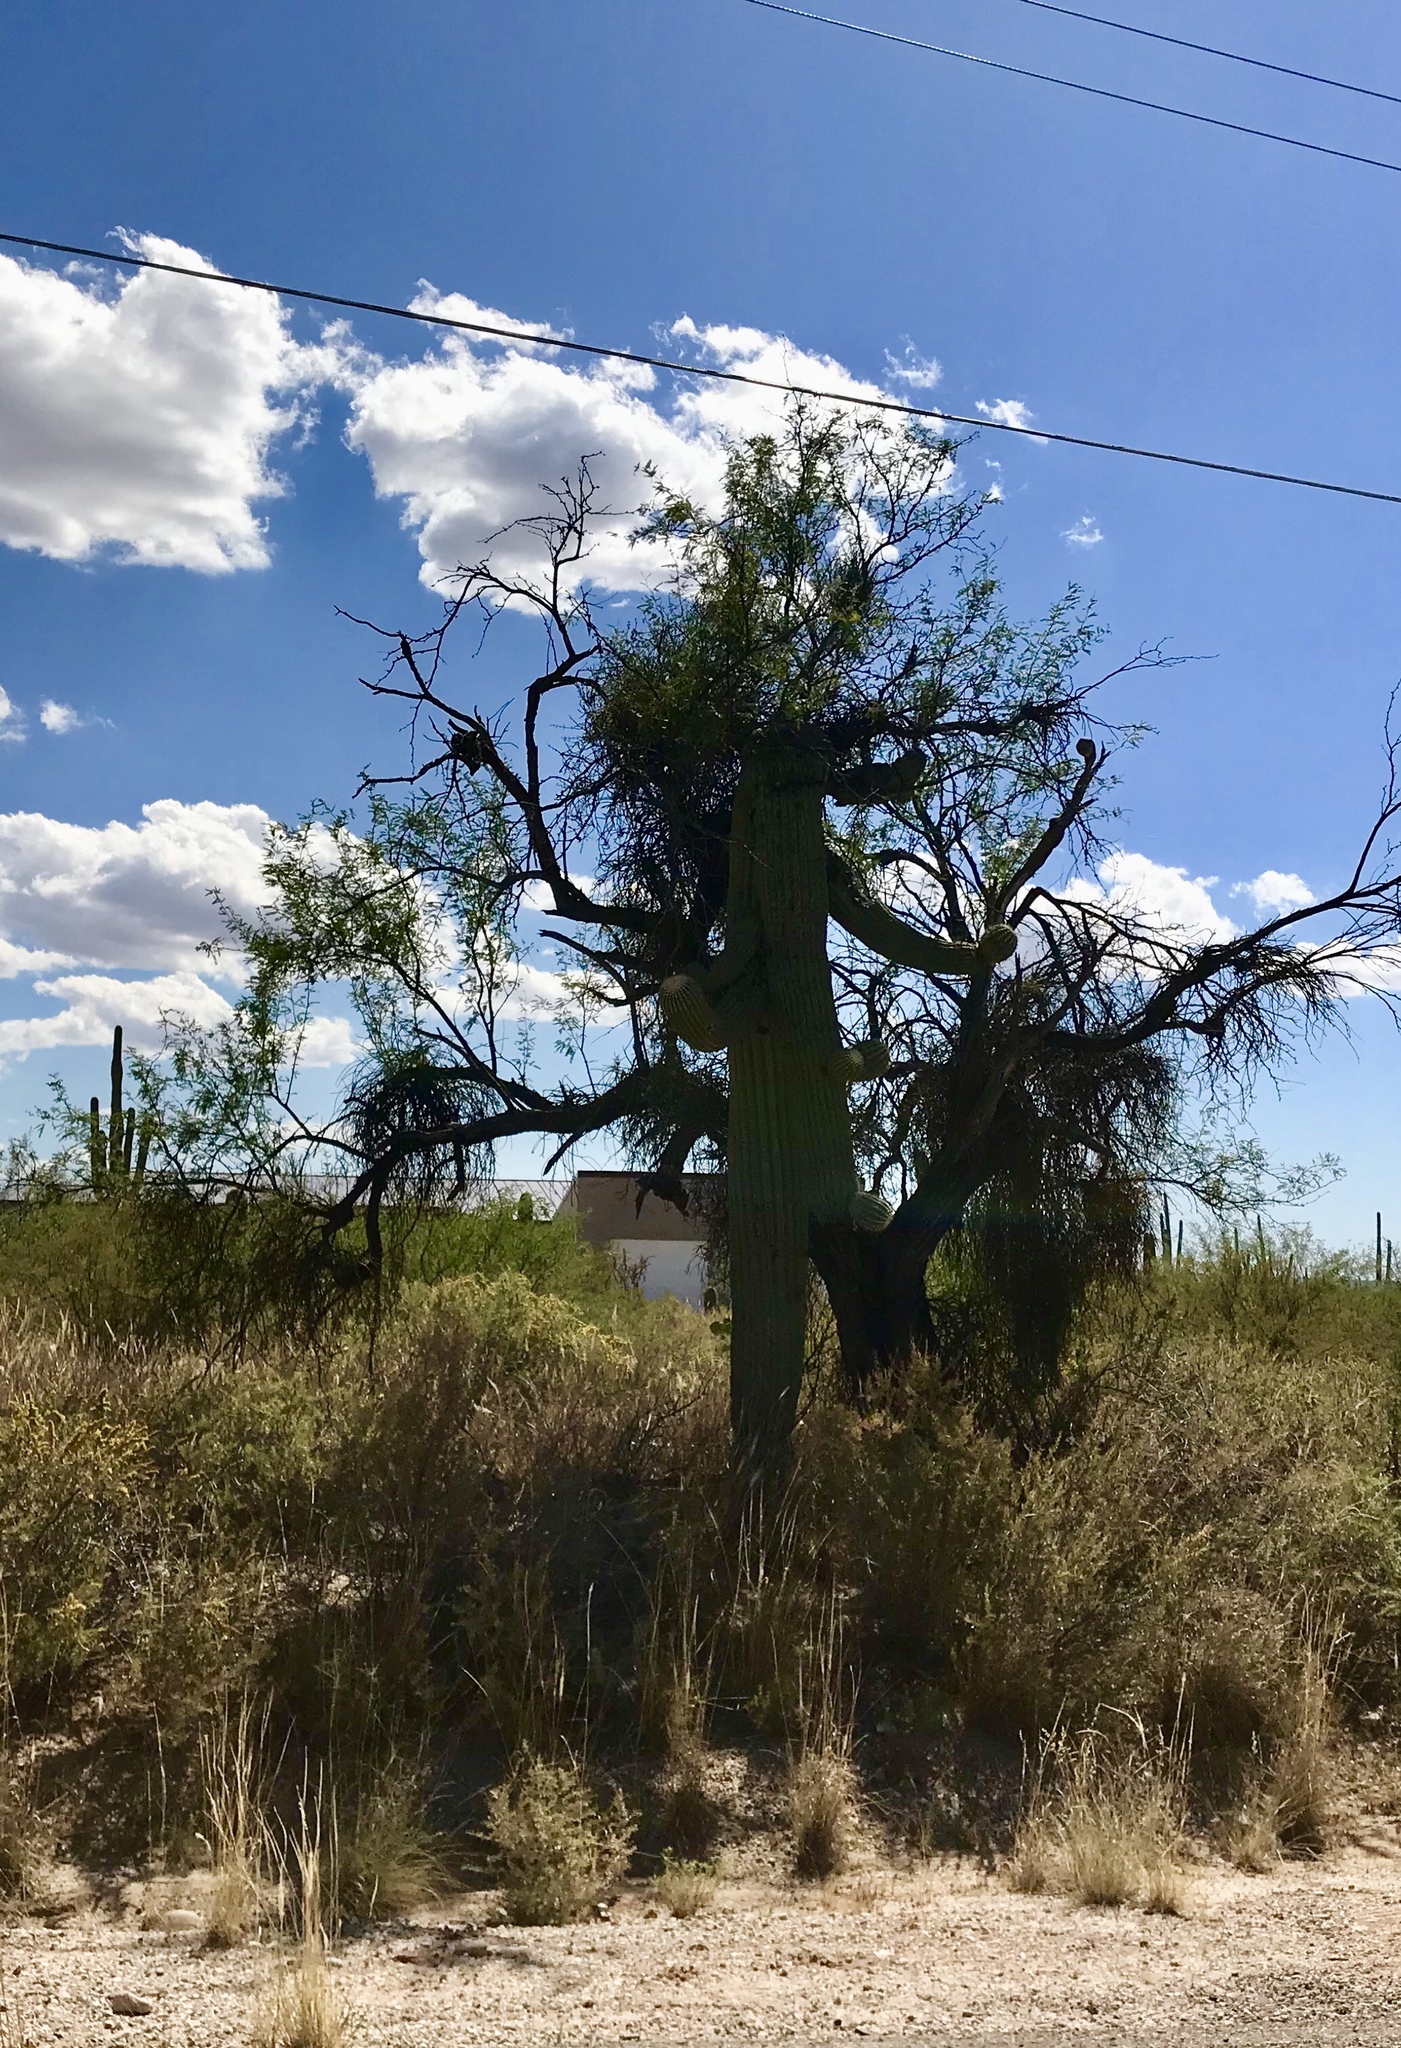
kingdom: Plantae
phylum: Tracheophyta
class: Magnoliopsida
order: Caryophyllales
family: Cactaceae
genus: Carnegiea
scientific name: Carnegiea gigantea
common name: Saguaro
